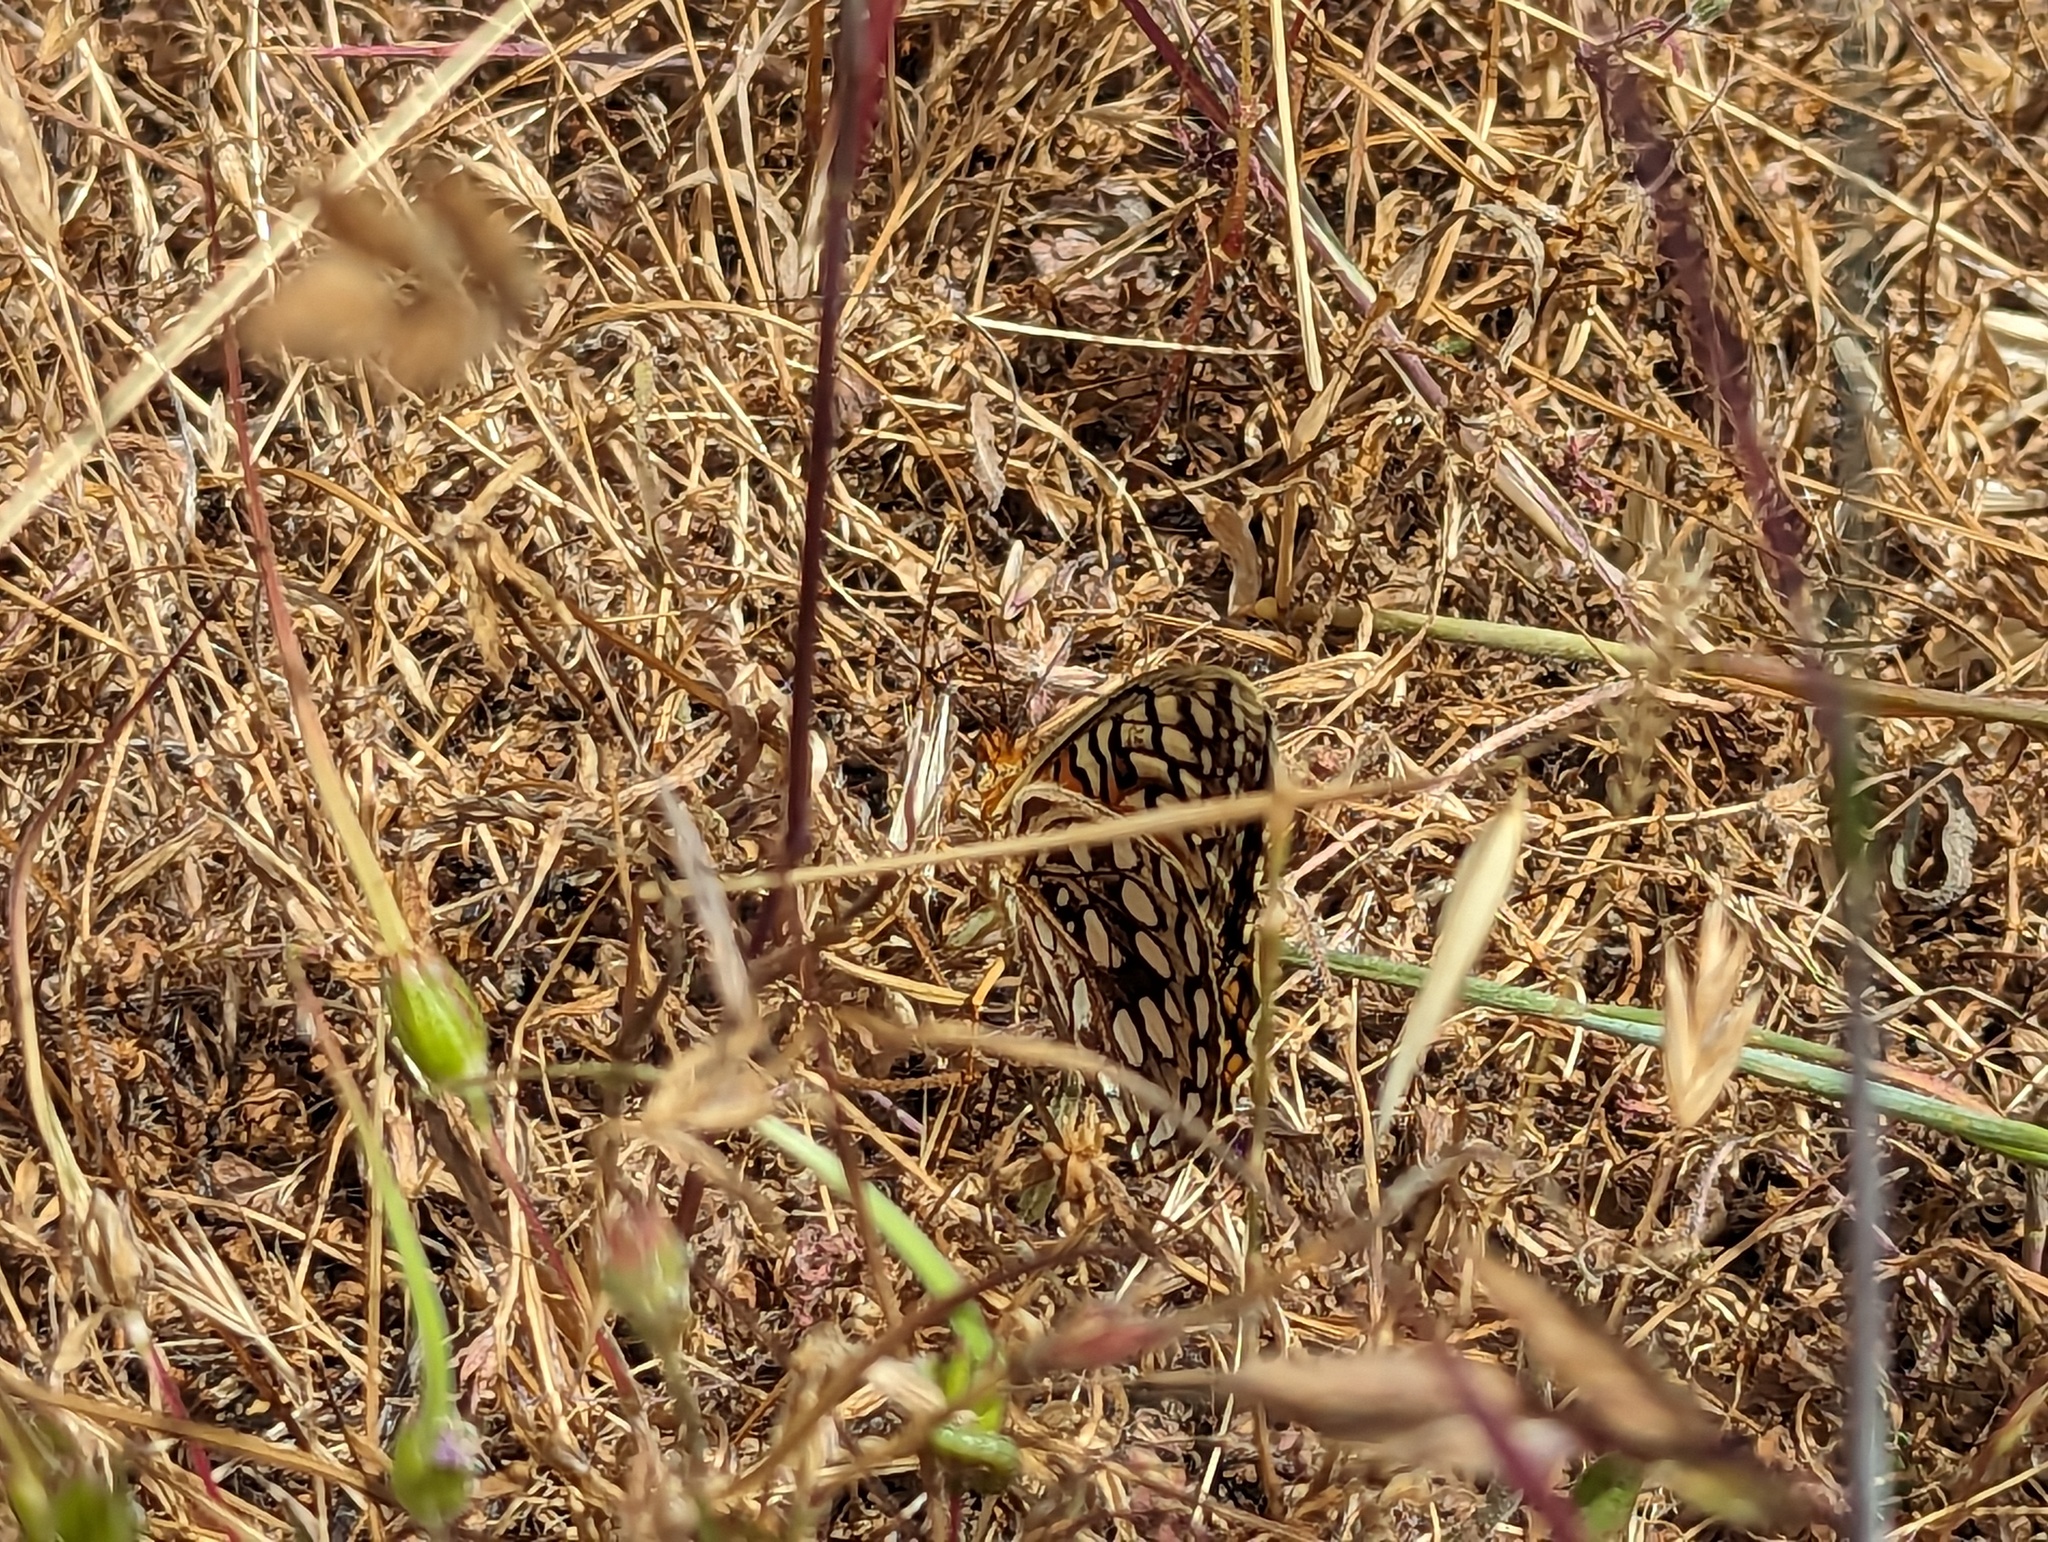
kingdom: Animalia
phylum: Arthropoda
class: Insecta
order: Lepidoptera
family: Nymphalidae
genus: Argynnis
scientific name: Argynnis coronis
